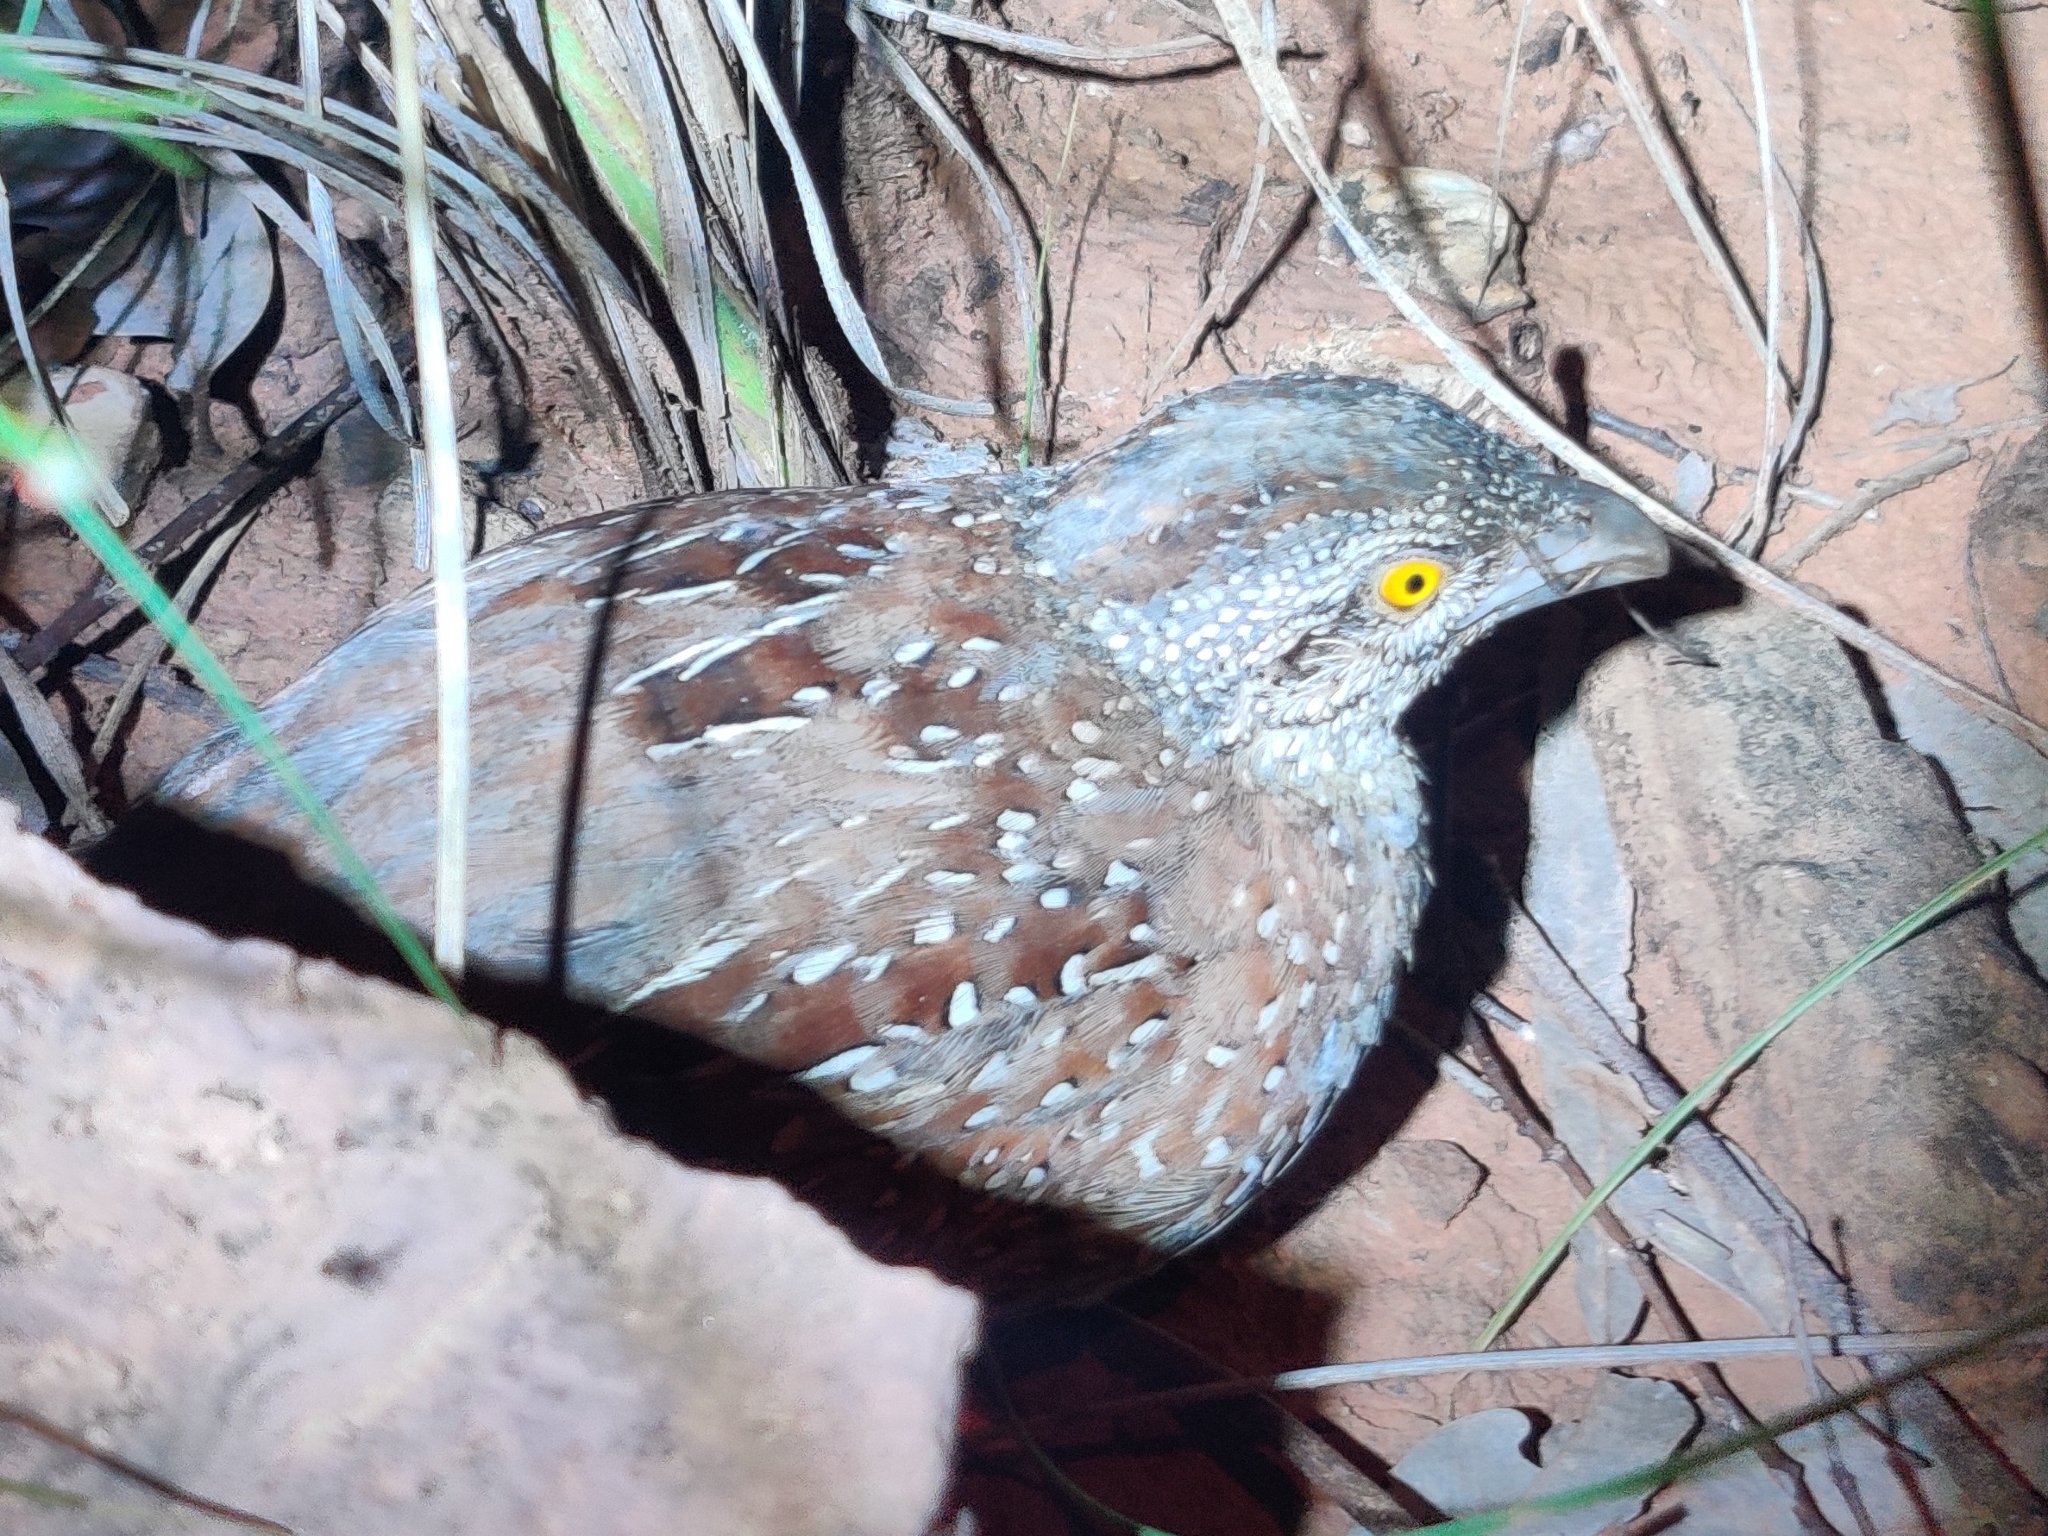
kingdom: Animalia
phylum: Chordata
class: Aves
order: Charadriiformes
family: Turnicidae
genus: Turnix
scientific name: Turnix castanotus
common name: Chestnut-backed buttonquail
